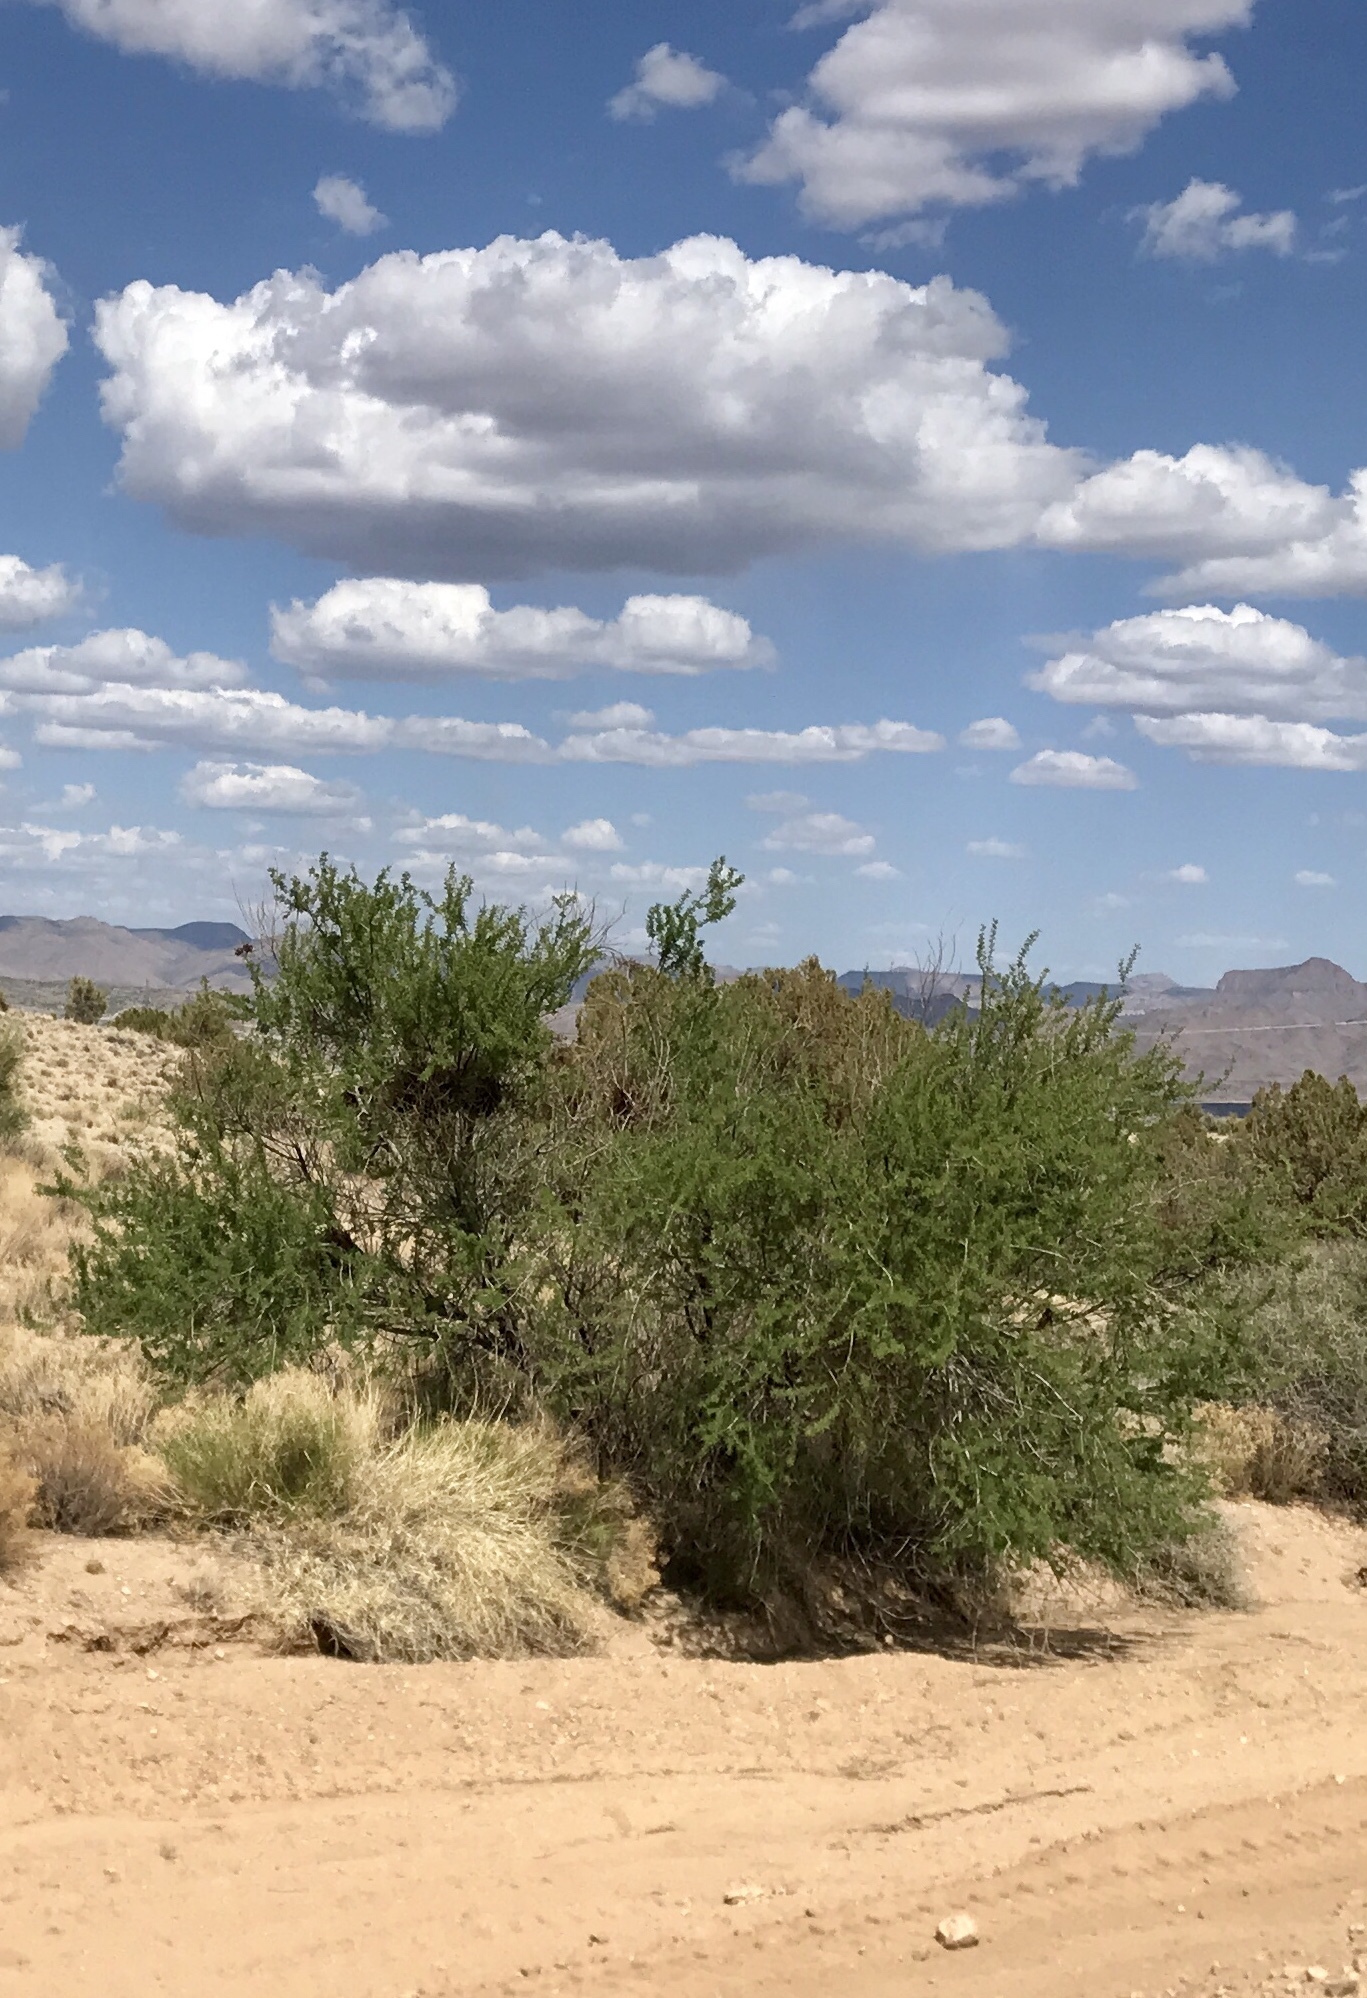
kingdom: Plantae
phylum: Tracheophyta
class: Magnoliopsida
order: Fabales
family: Fabaceae
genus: Senegalia
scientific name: Senegalia greggii
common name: Texas-mimosa
